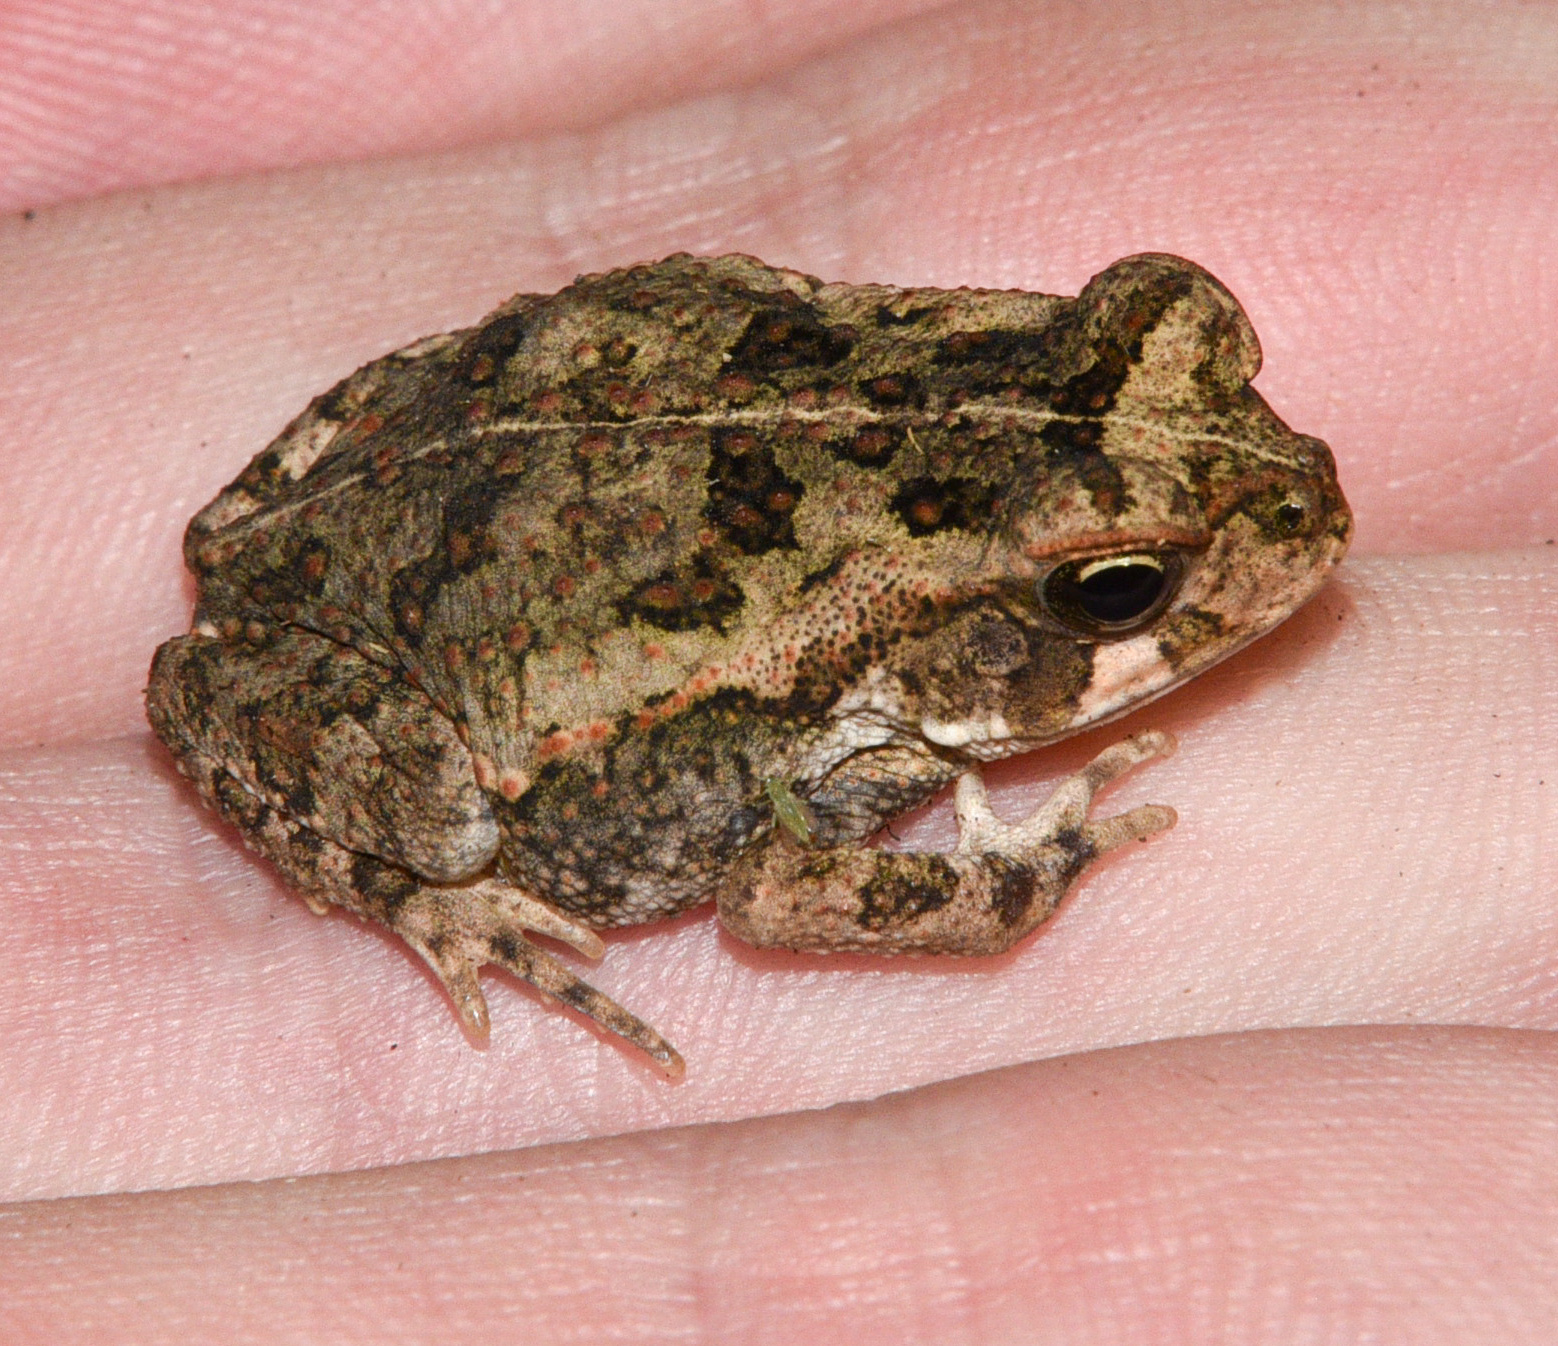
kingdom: Animalia
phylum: Chordata
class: Amphibia
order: Anura
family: Bufonidae
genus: Rhinella
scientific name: Rhinella horribilis
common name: Mesoamerican cane toad
